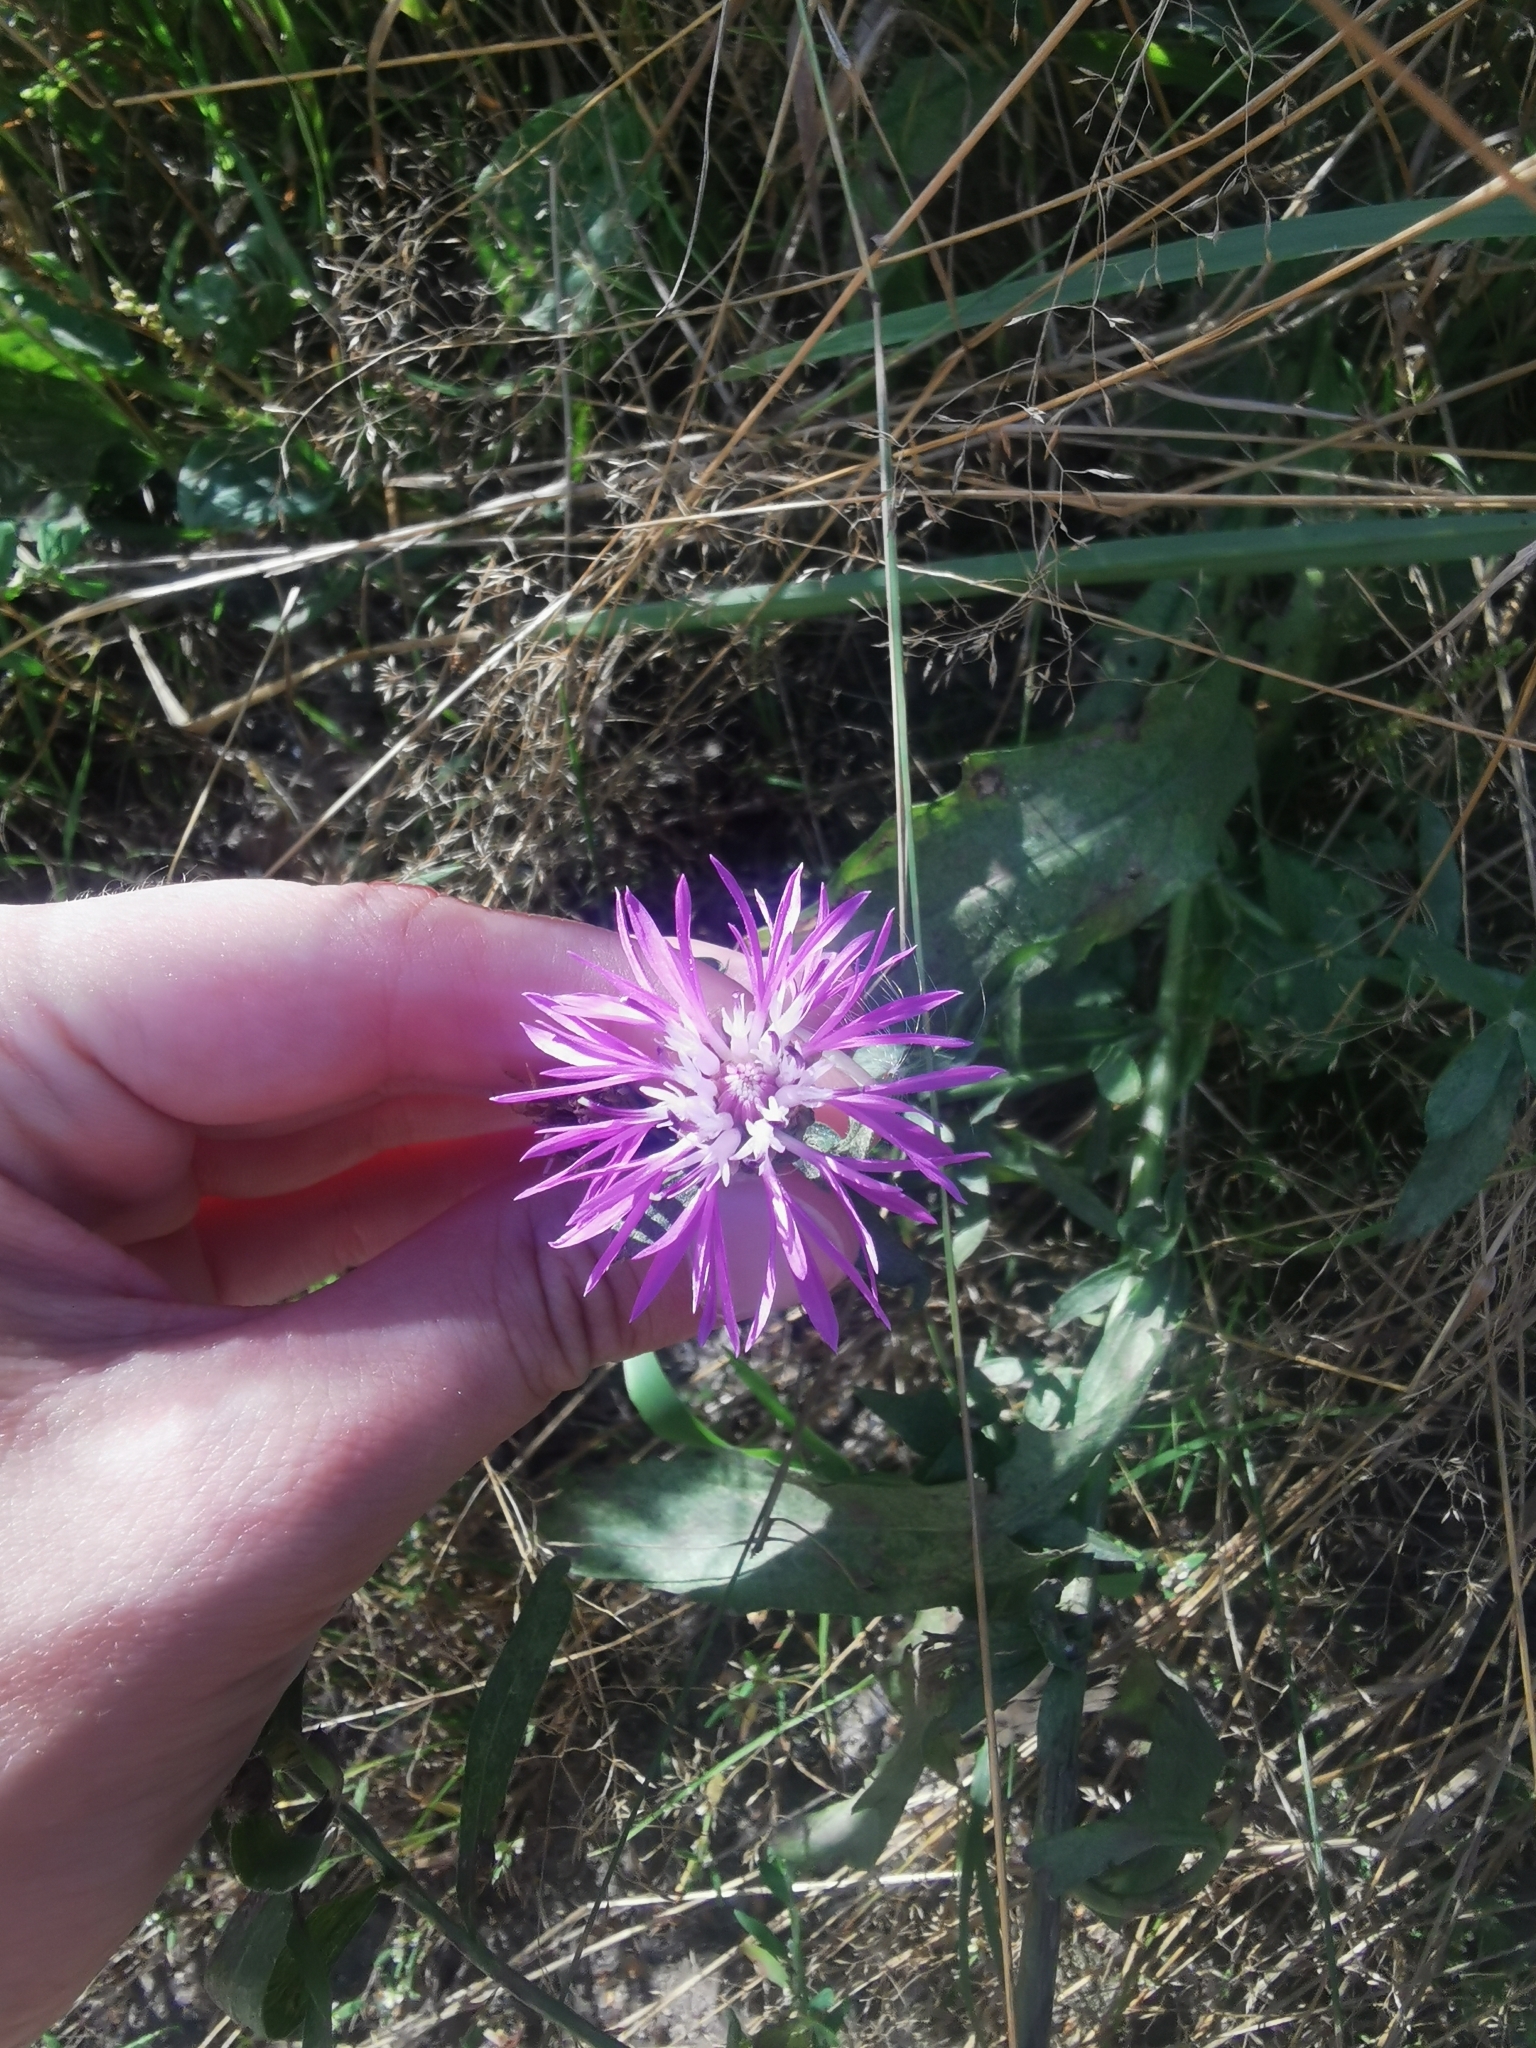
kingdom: Plantae
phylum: Tracheophyta
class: Magnoliopsida
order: Asterales
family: Asteraceae
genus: Centaurea
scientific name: Centaurea jacea
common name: Brown knapweed
